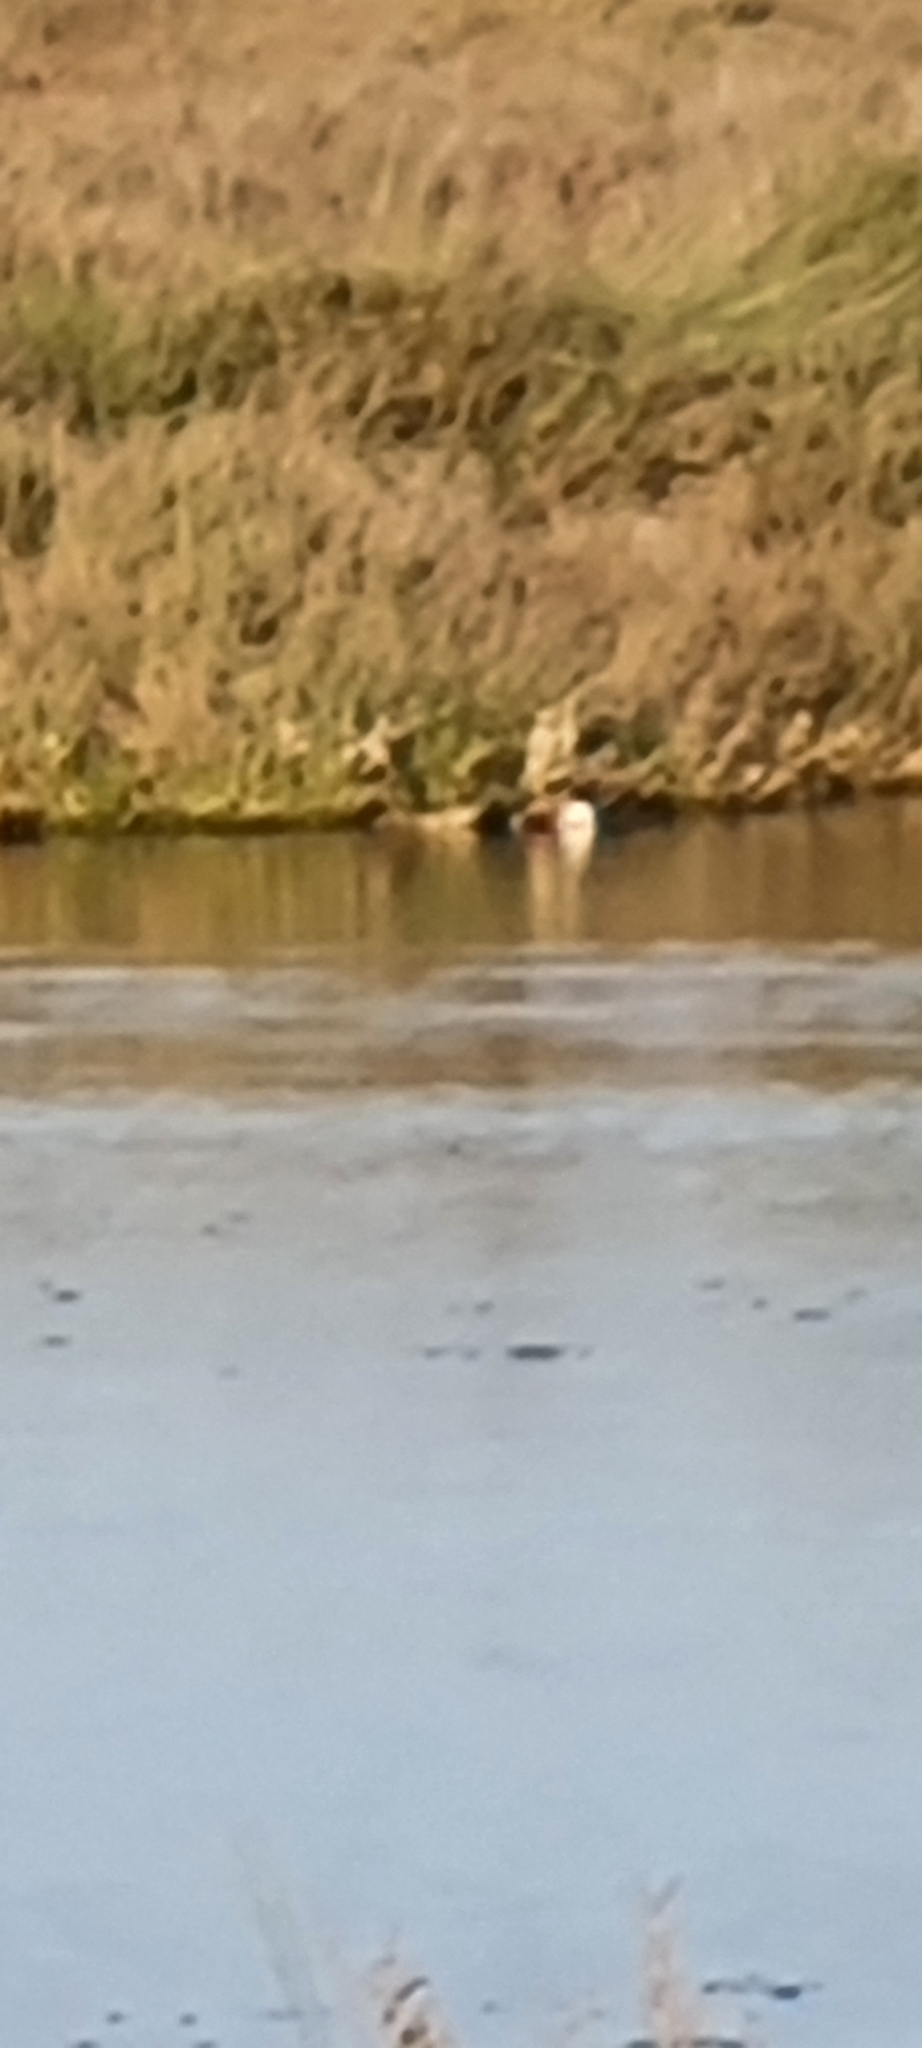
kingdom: Animalia
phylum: Chordata
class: Aves
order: Anseriformes
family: Anatidae
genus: Spatula
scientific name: Spatula clypeata
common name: Northern shoveler
